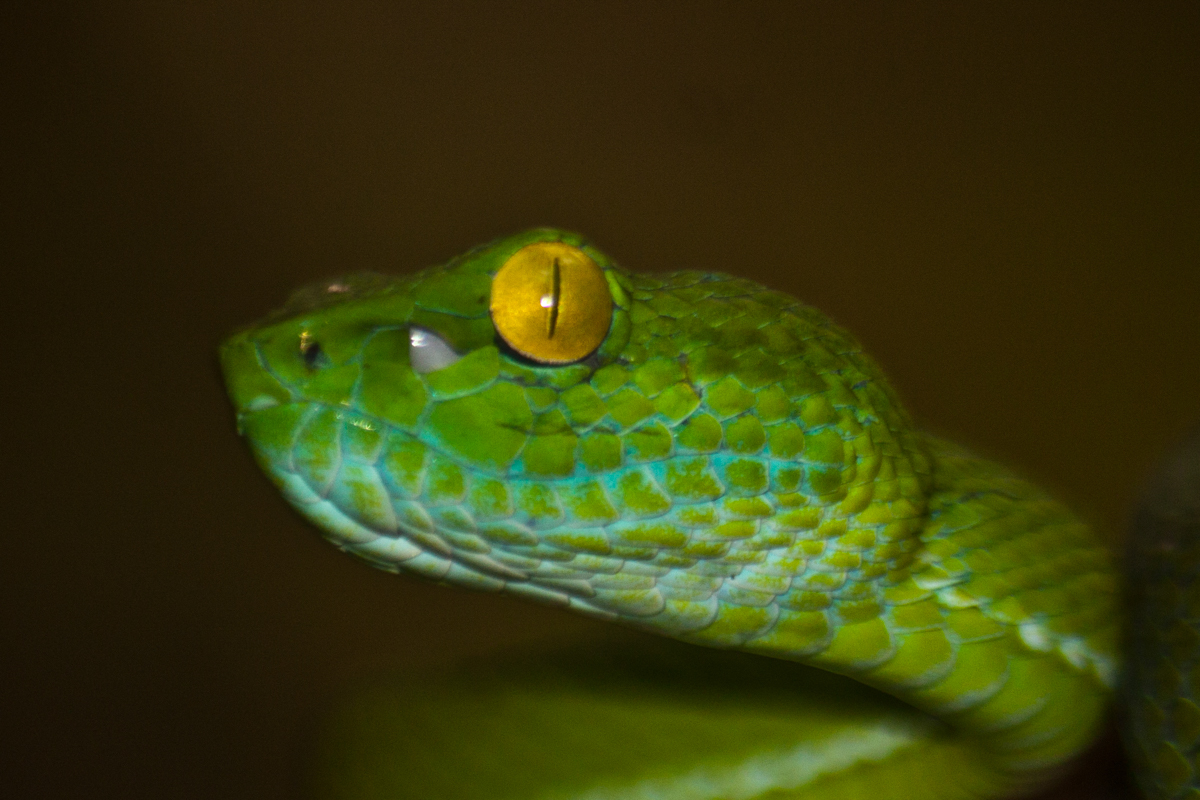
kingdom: Animalia
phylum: Chordata
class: Squamata
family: Viperidae
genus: Trimeresurus
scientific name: Trimeresurus cardamomensis
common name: Cardamom mountains green pitviper
